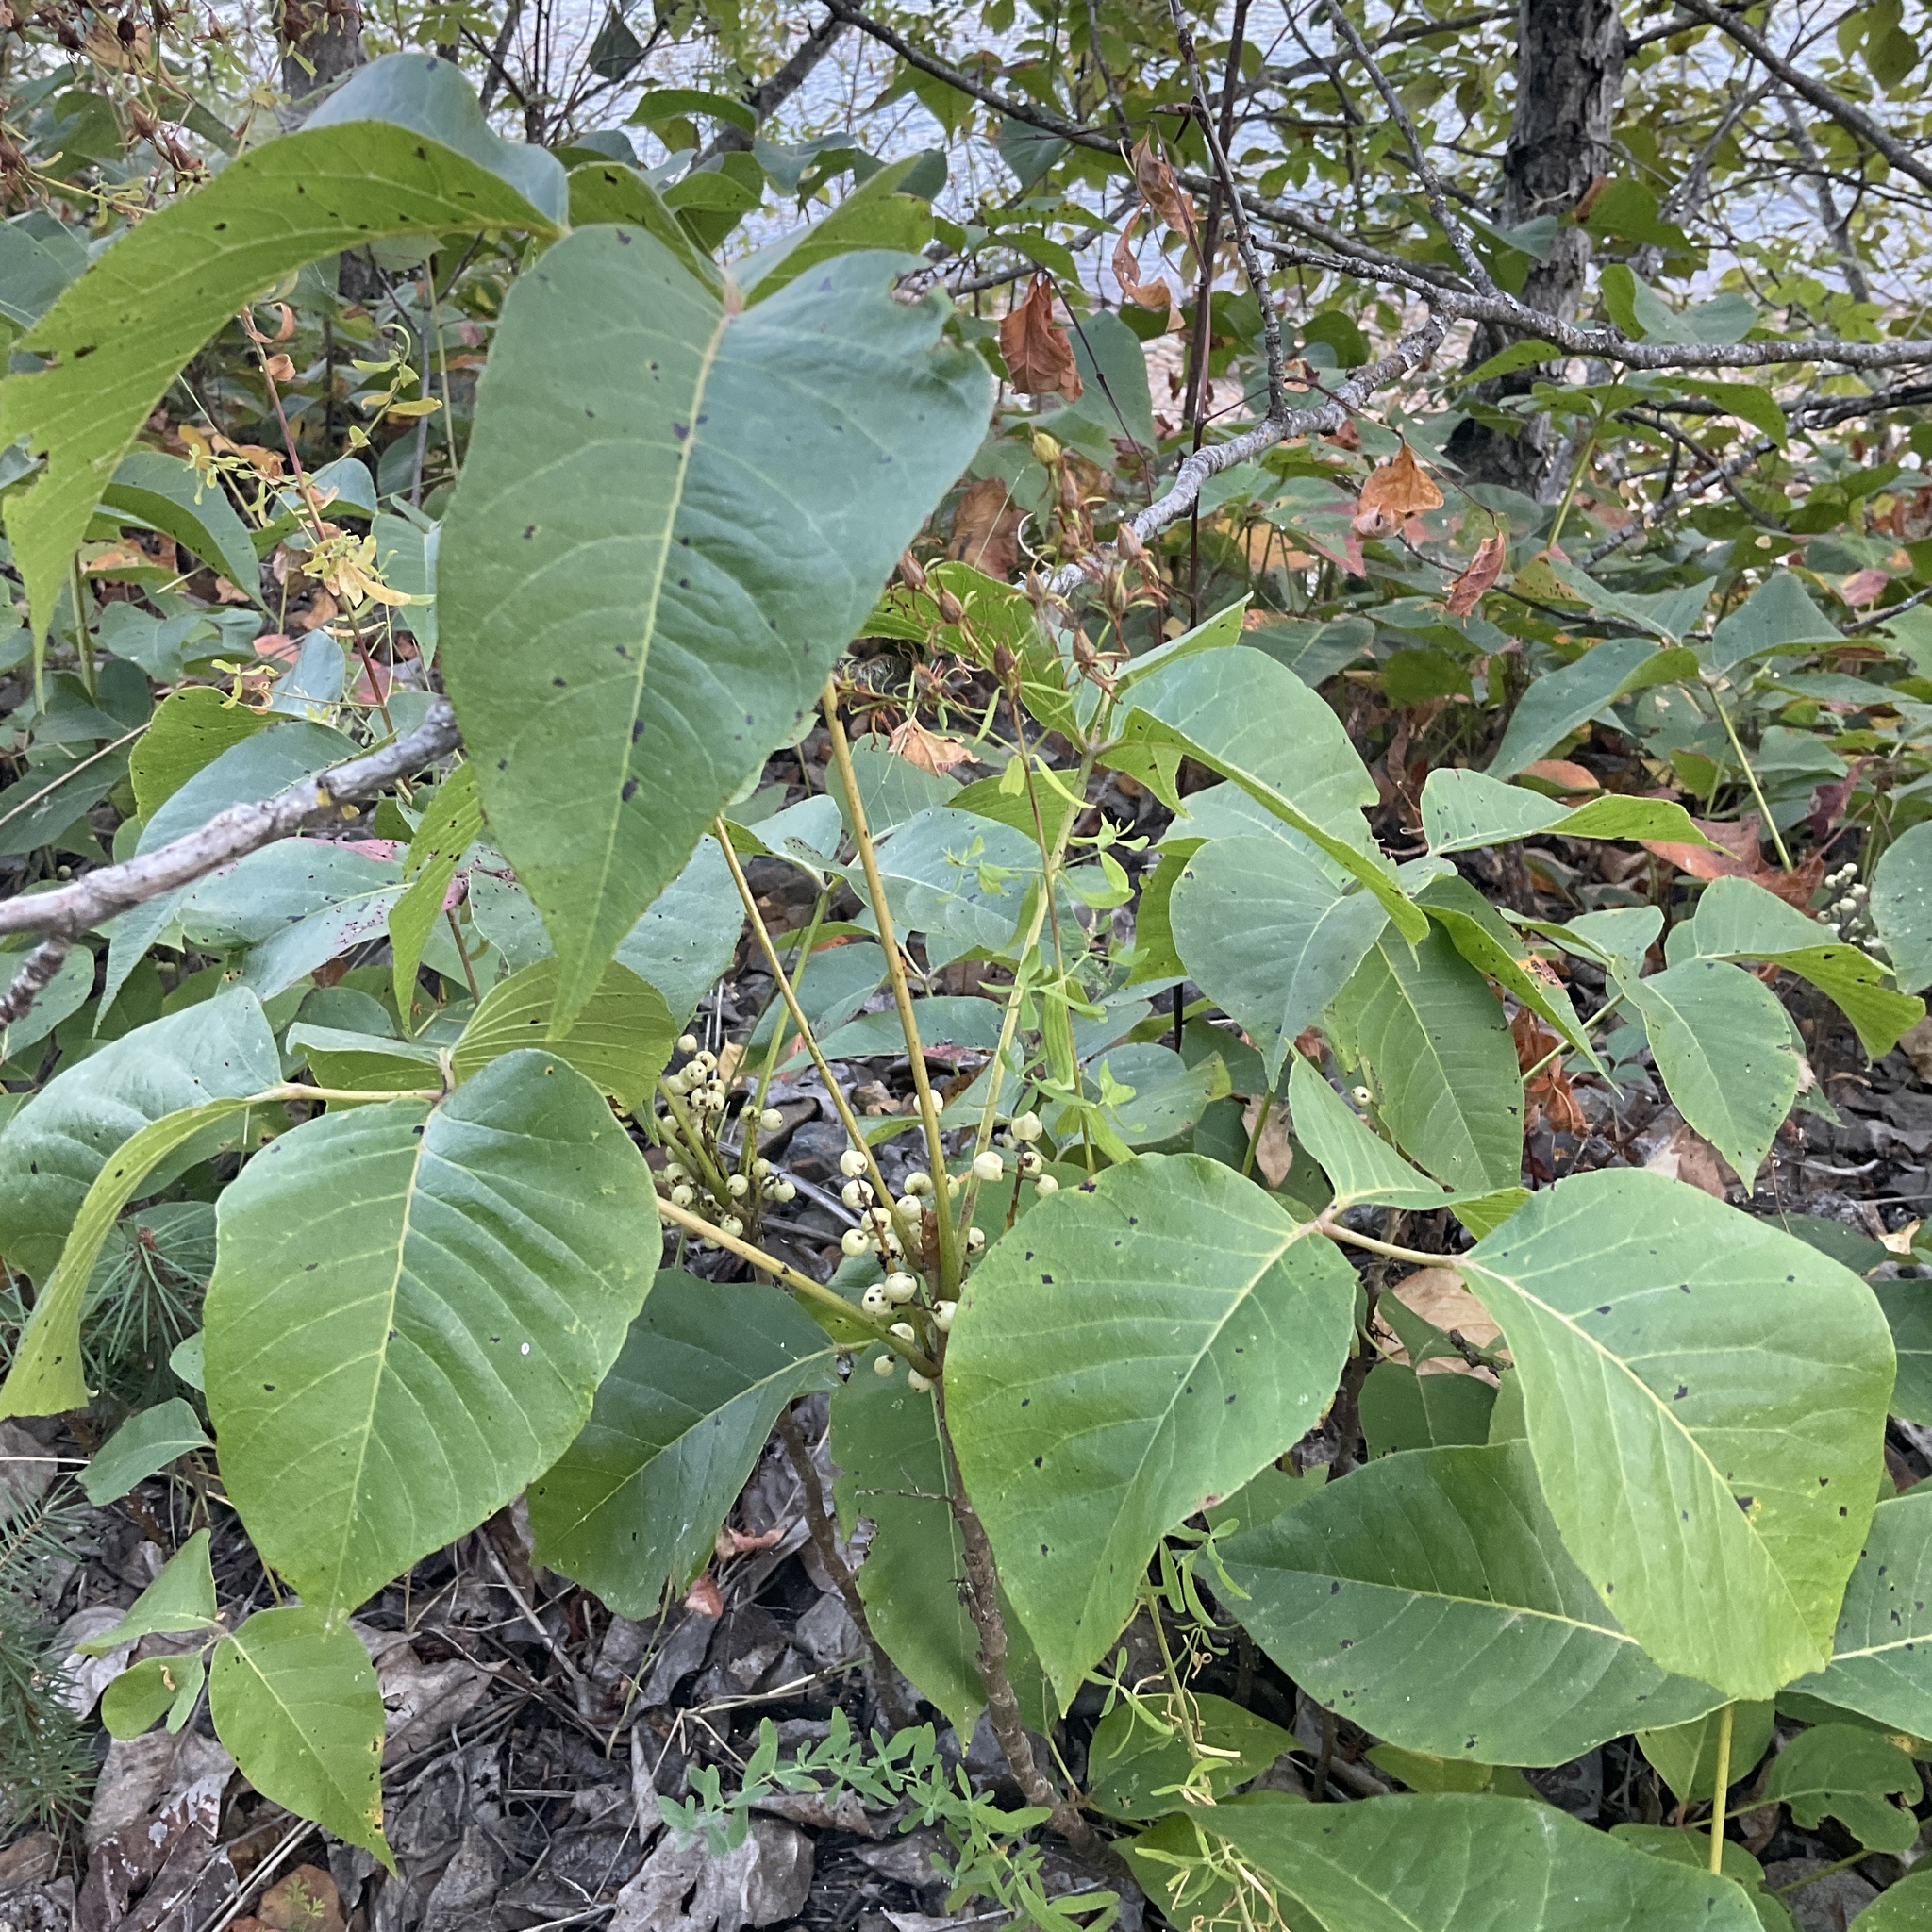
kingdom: Plantae
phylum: Tracheophyta
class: Magnoliopsida
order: Sapindales
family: Anacardiaceae
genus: Toxicodendron
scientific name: Toxicodendron rydbergii
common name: Rydberg's poison-ivy
